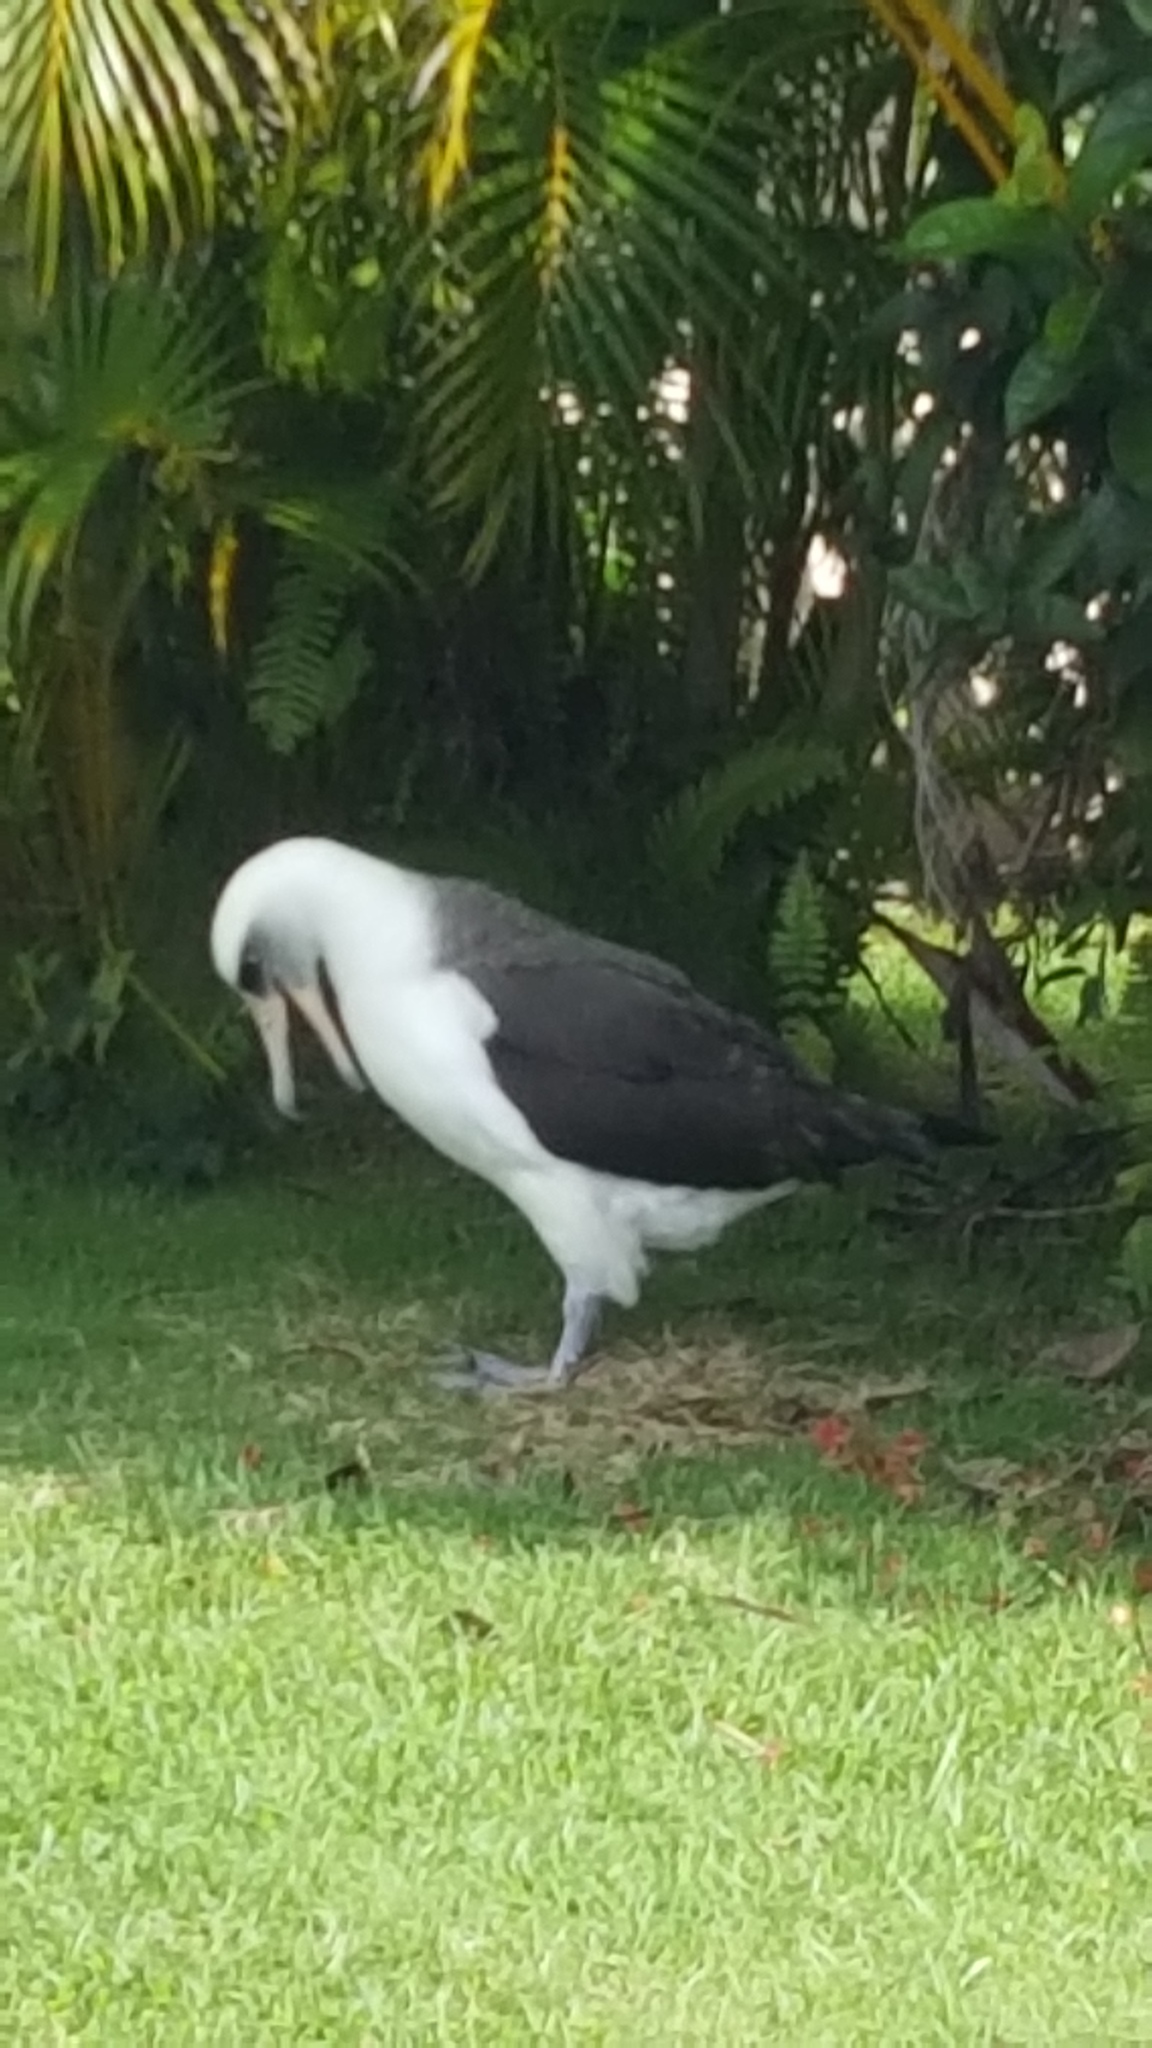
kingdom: Animalia
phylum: Chordata
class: Aves
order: Procellariiformes
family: Diomedeidae
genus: Phoebastria
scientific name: Phoebastria immutabilis
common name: Laysan albatross
